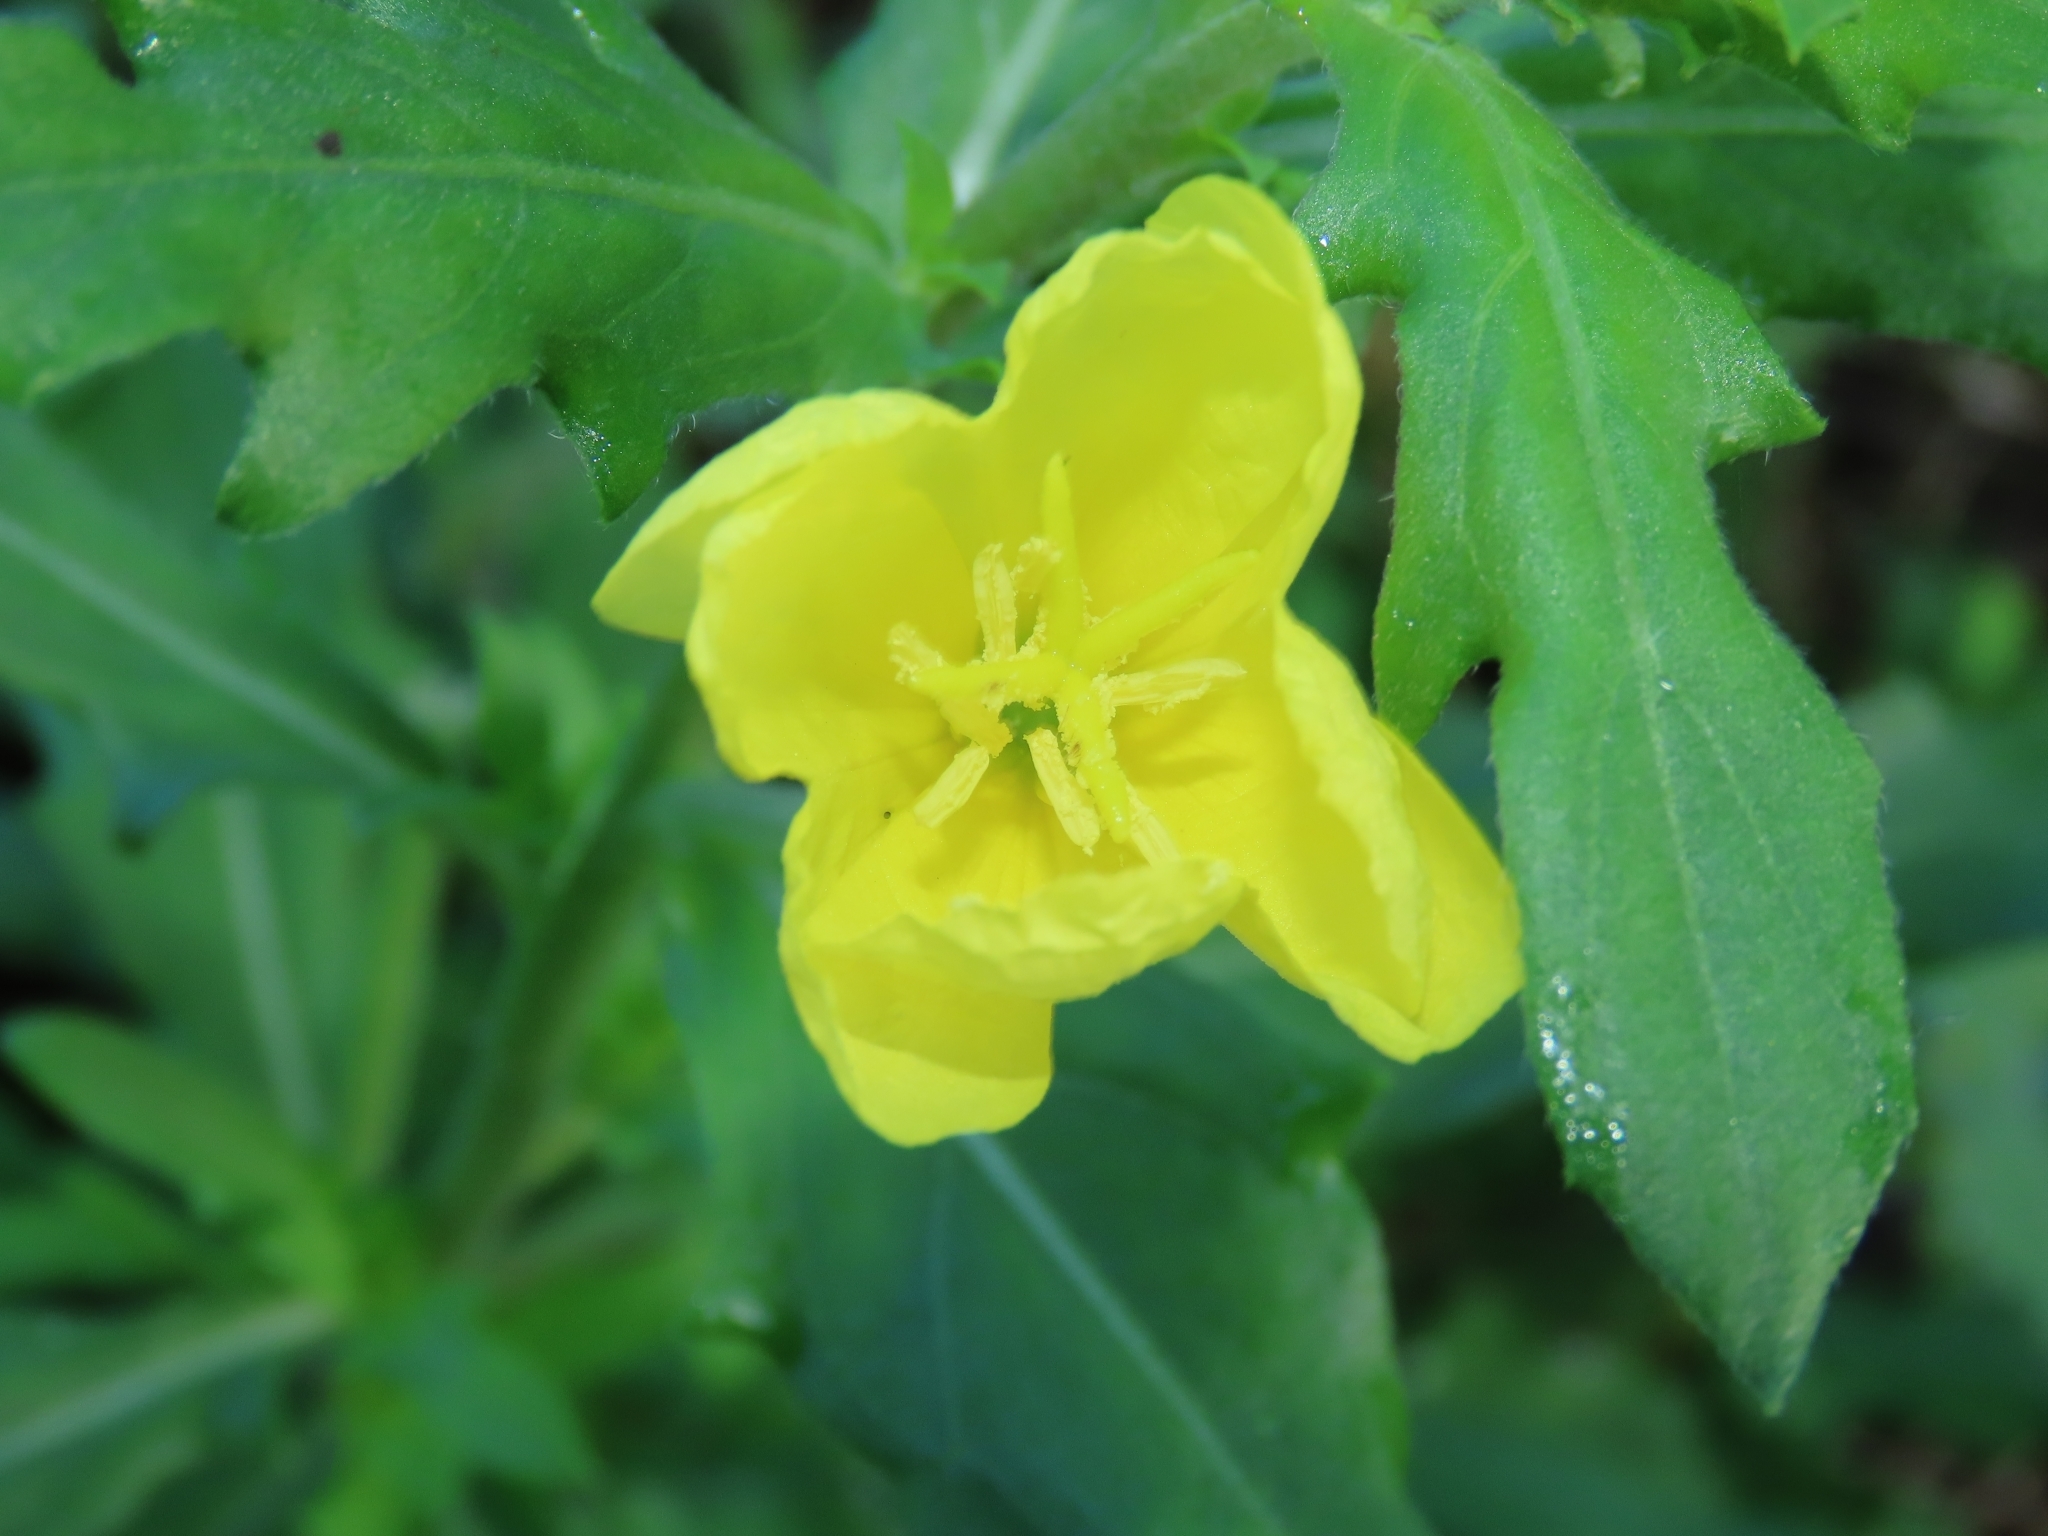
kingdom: Plantae
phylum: Tracheophyta
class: Magnoliopsida
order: Myrtales
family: Onagraceae
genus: Oenothera
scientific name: Oenothera laciniata
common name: Cut-leaved evening-primrose
